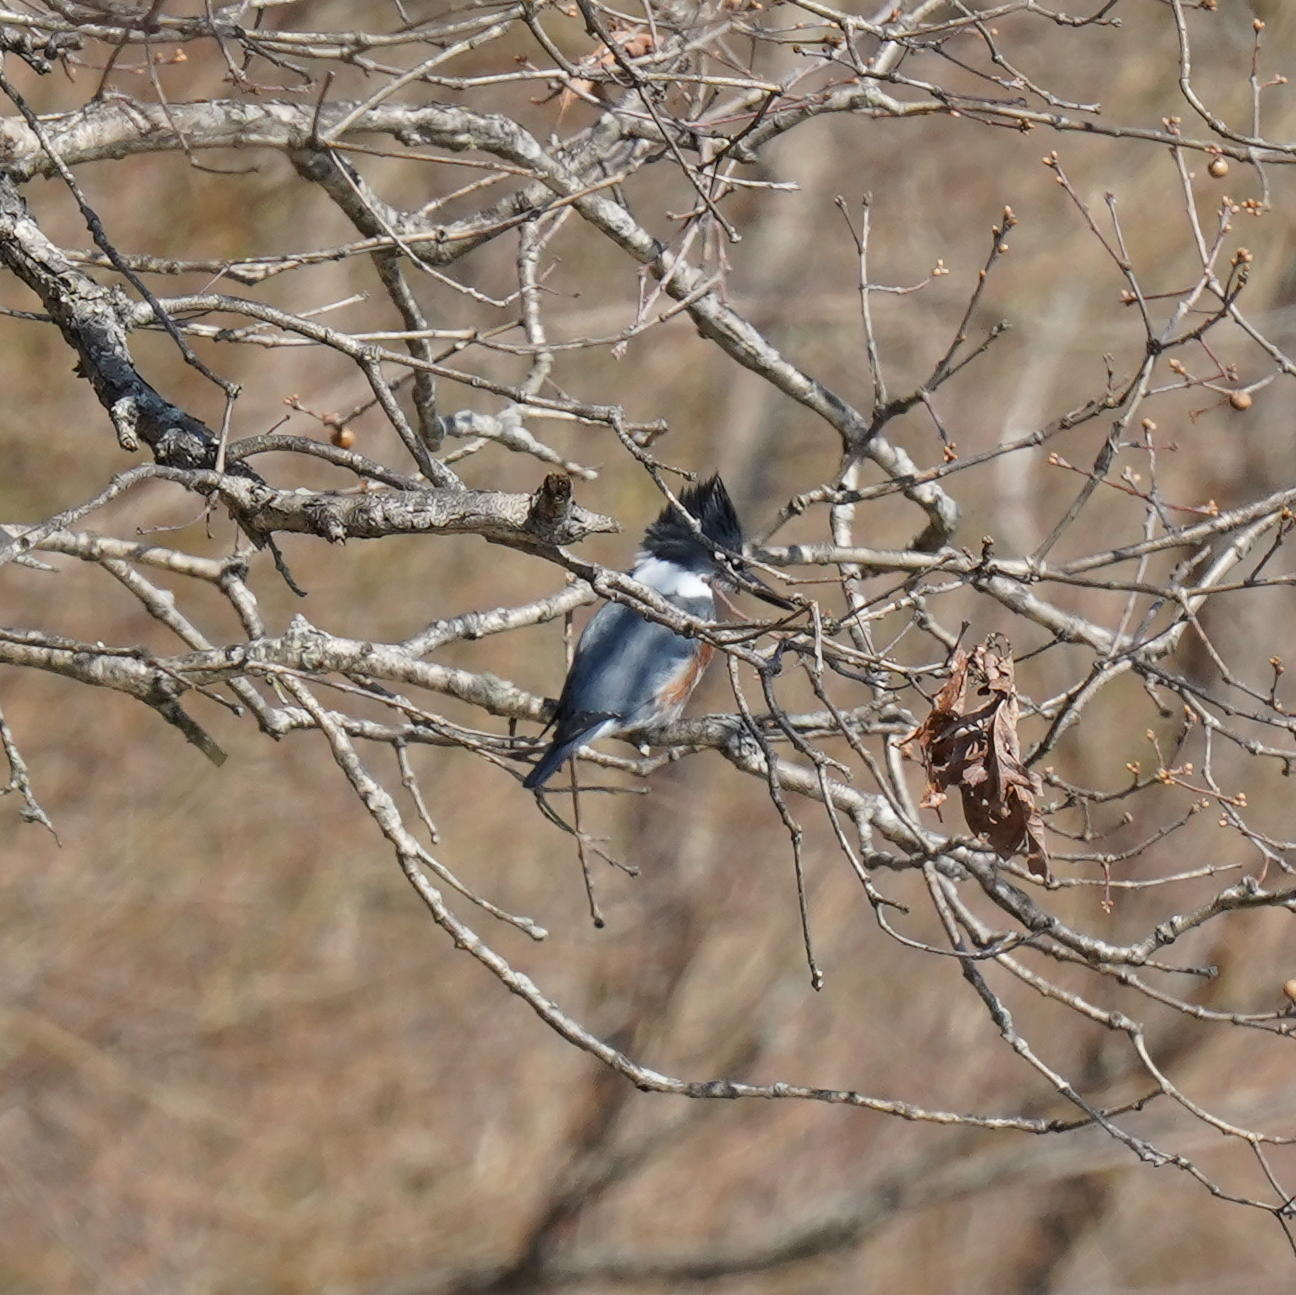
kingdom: Animalia
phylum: Chordata
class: Aves
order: Coraciiformes
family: Alcedinidae
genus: Megaceryle
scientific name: Megaceryle alcyon
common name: Belted kingfisher
